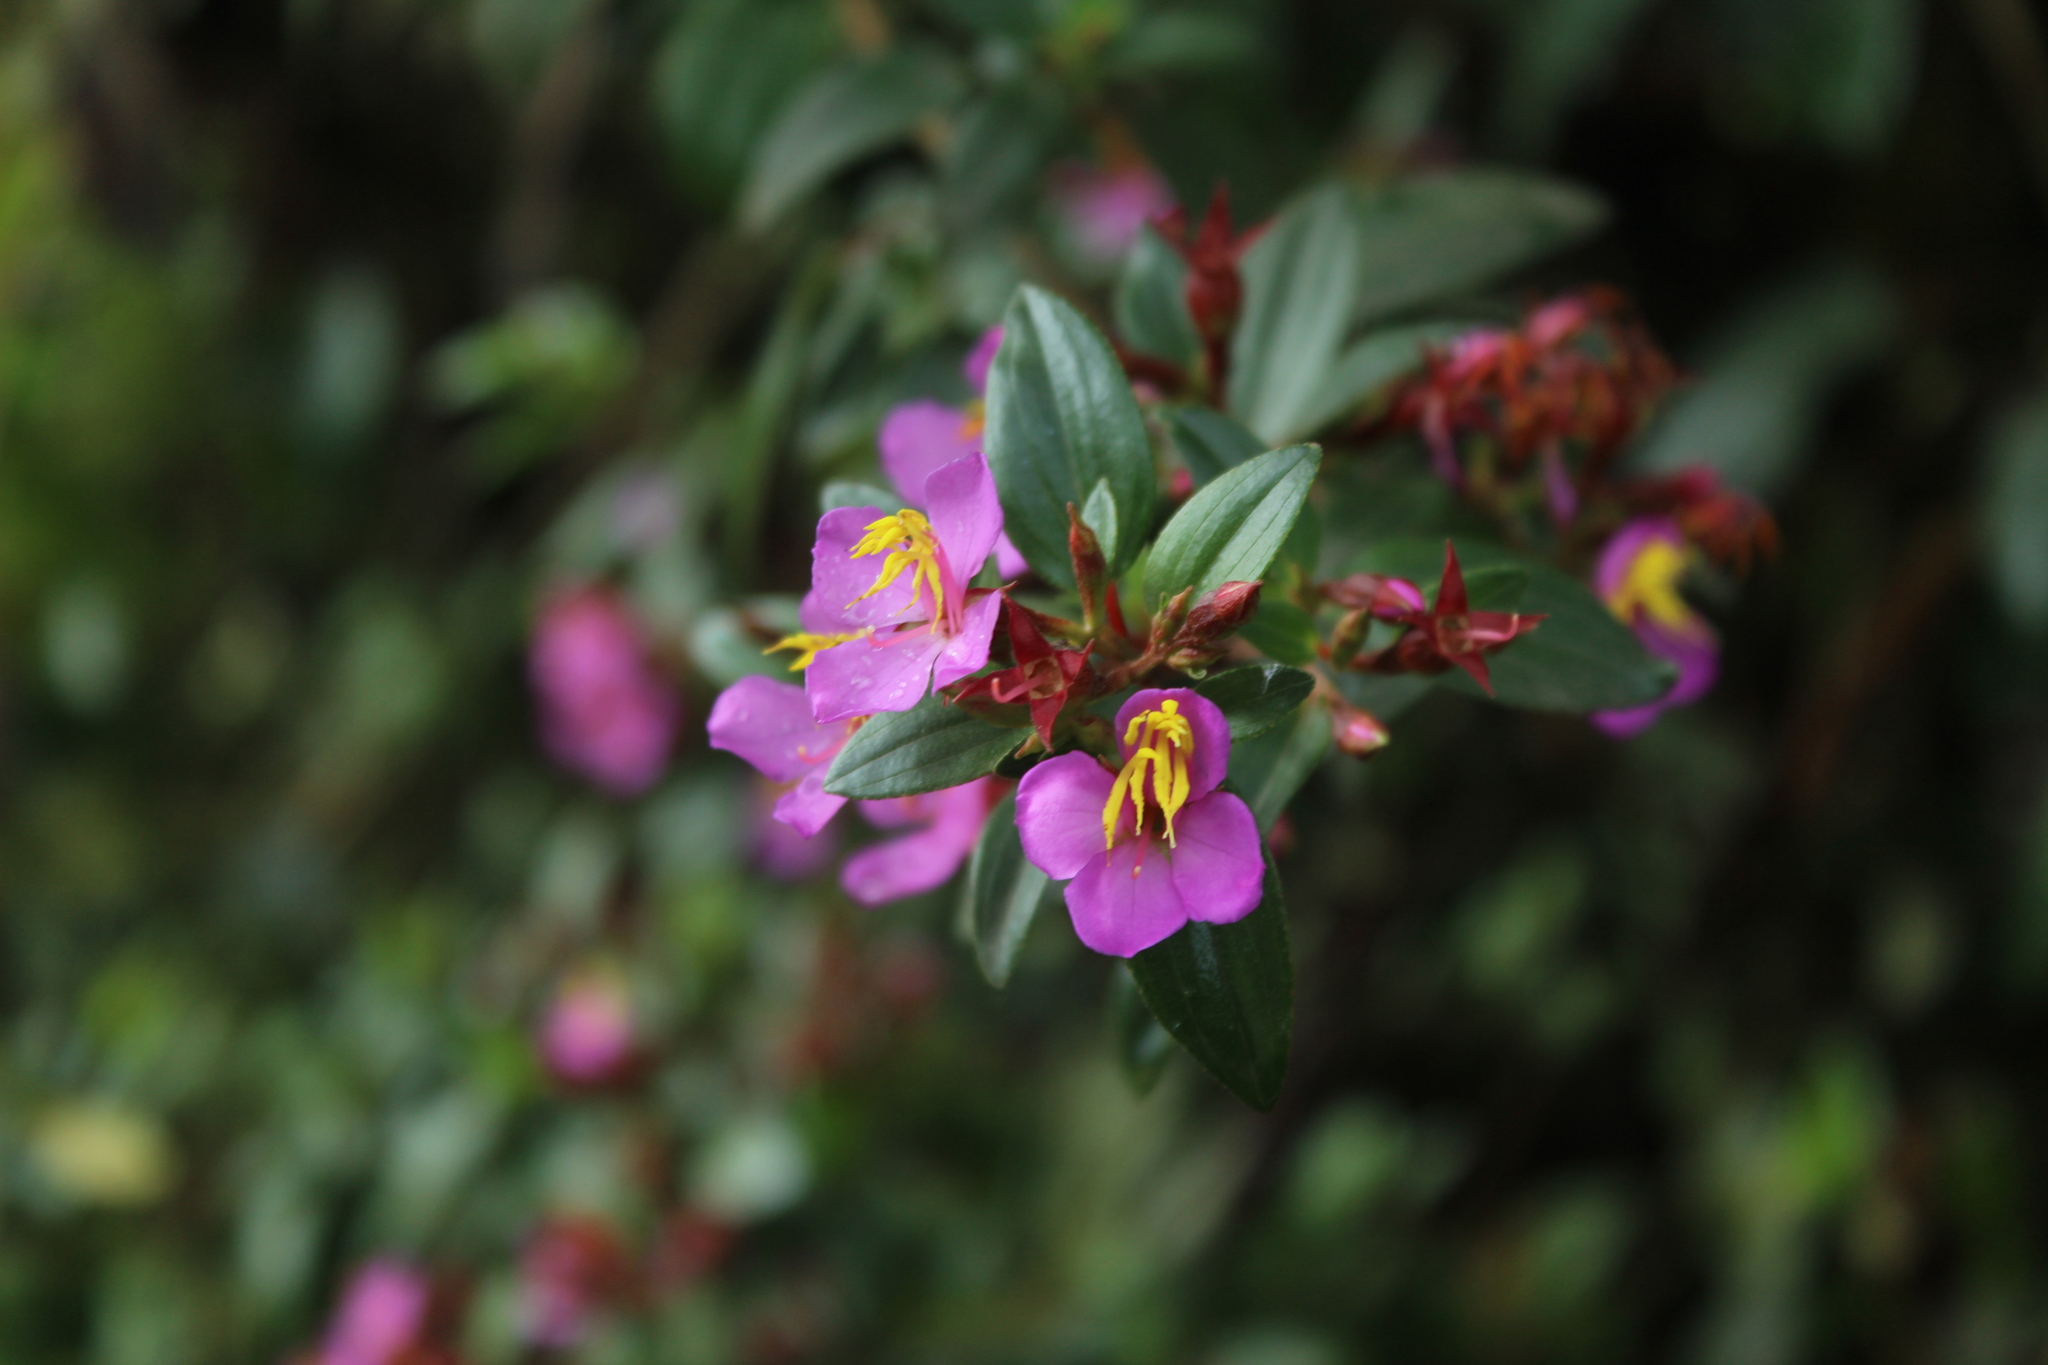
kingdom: Plantae
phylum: Tracheophyta
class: Magnoliopsida
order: Myrtales
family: Melastomataceae
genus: Monochaetum
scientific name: Monochaetum myrtoideum
